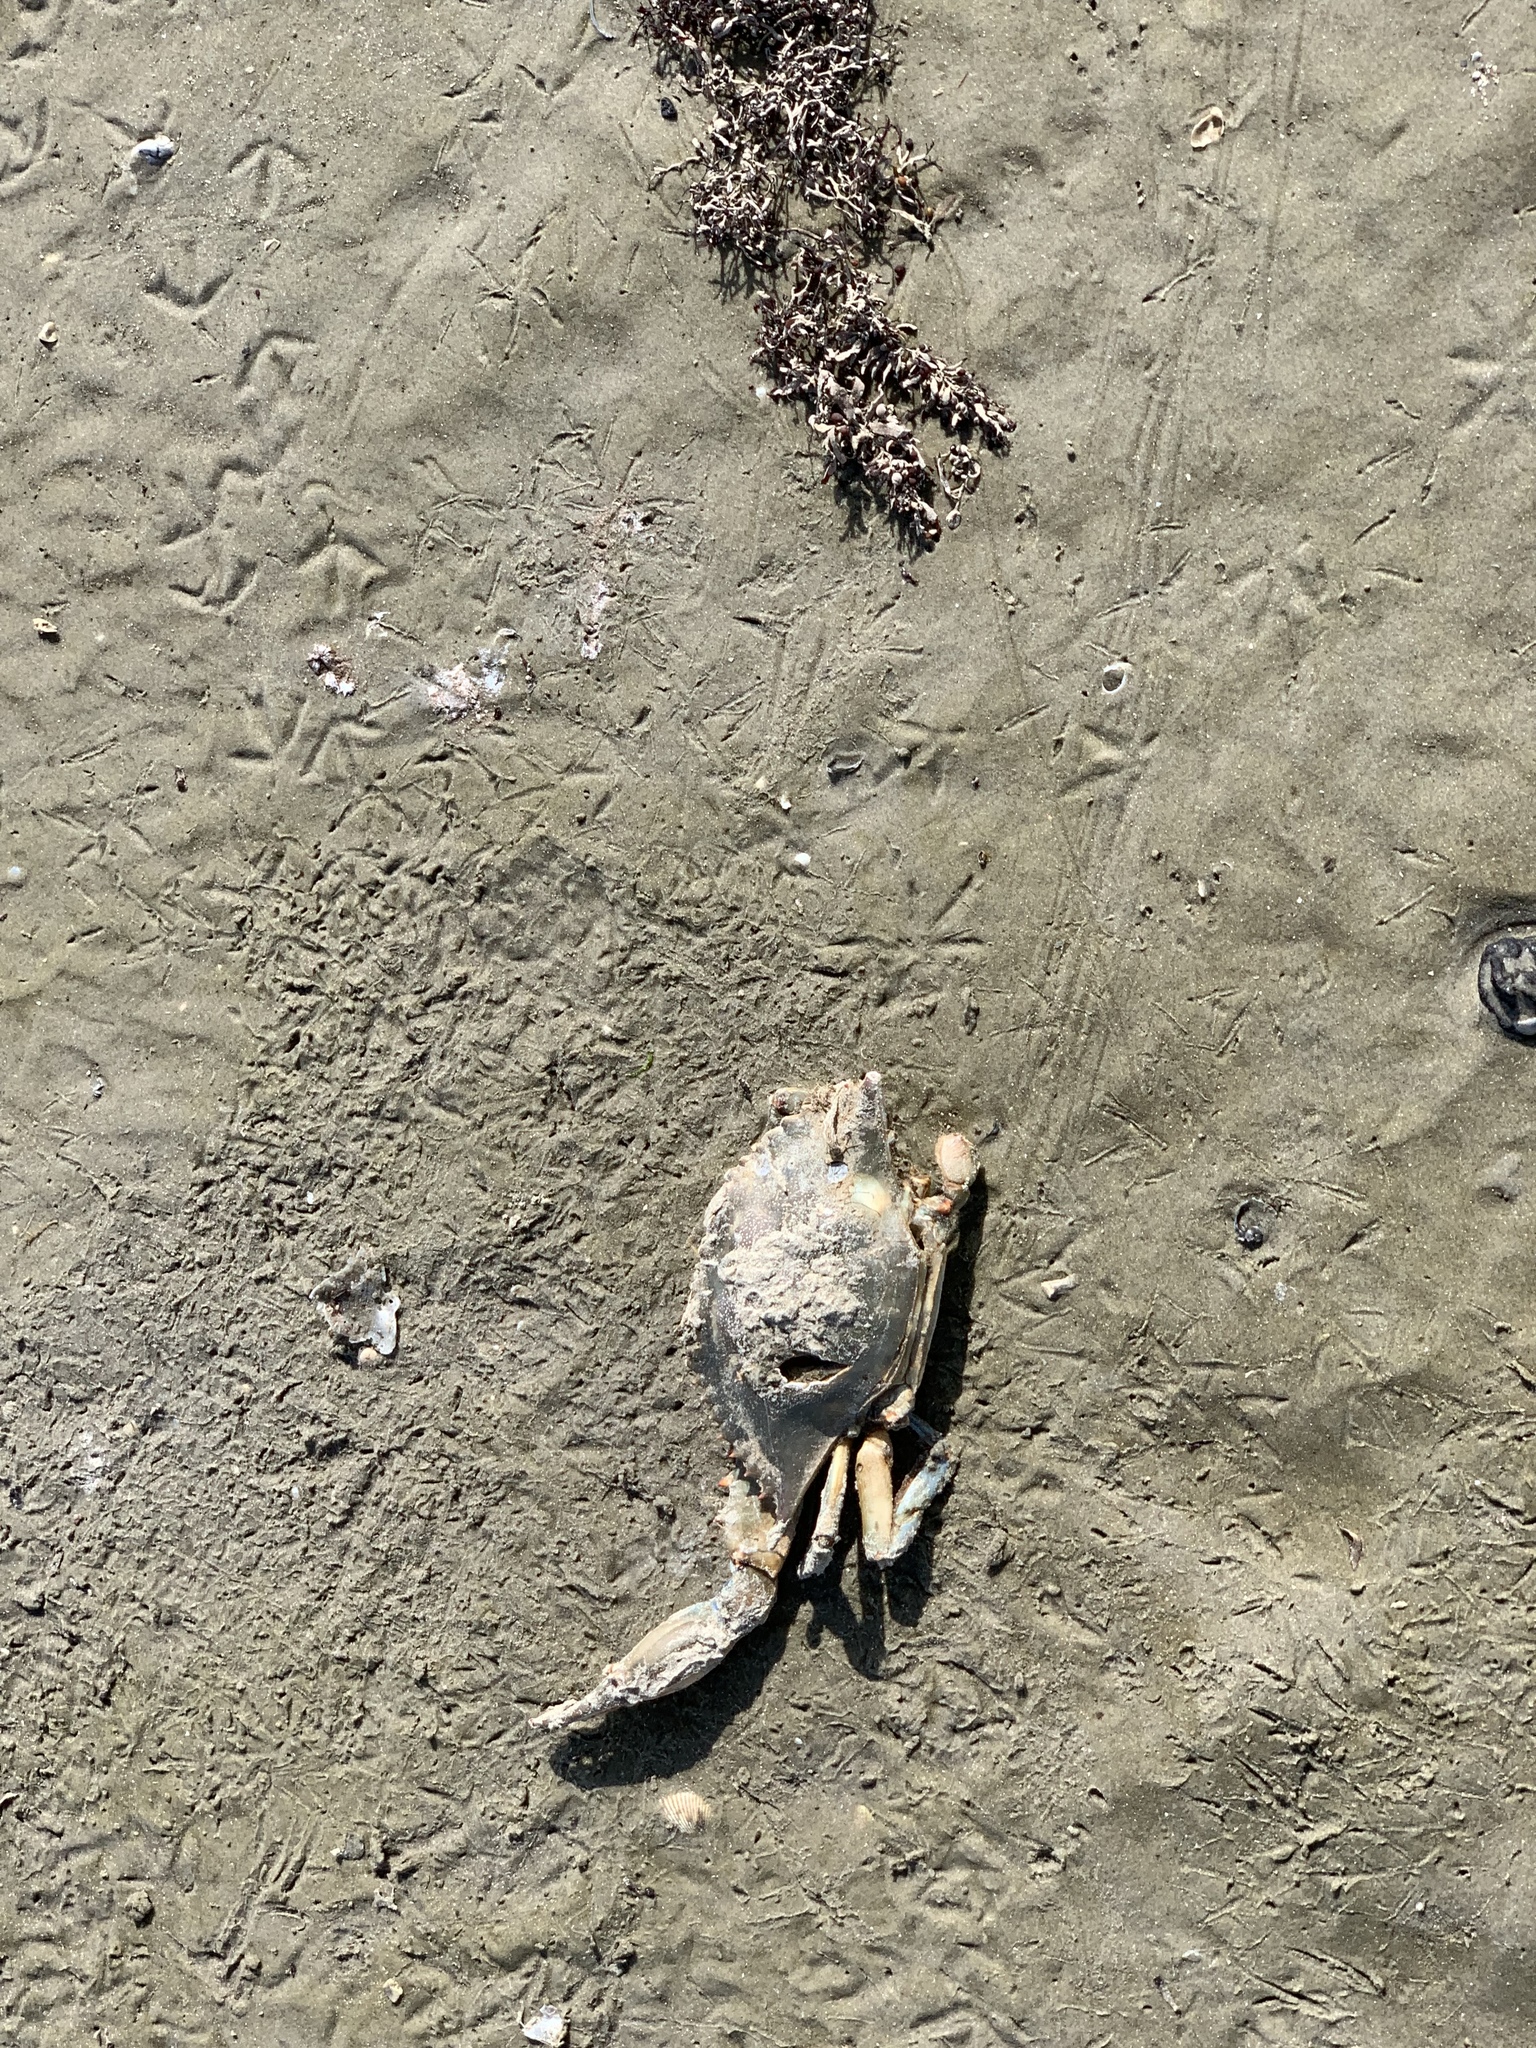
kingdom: Animalia
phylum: Arthropoda
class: Malacostraca
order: Decapoda
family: Portunidae
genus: Callinectes
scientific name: Callinectes sapidus
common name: Blue crab
